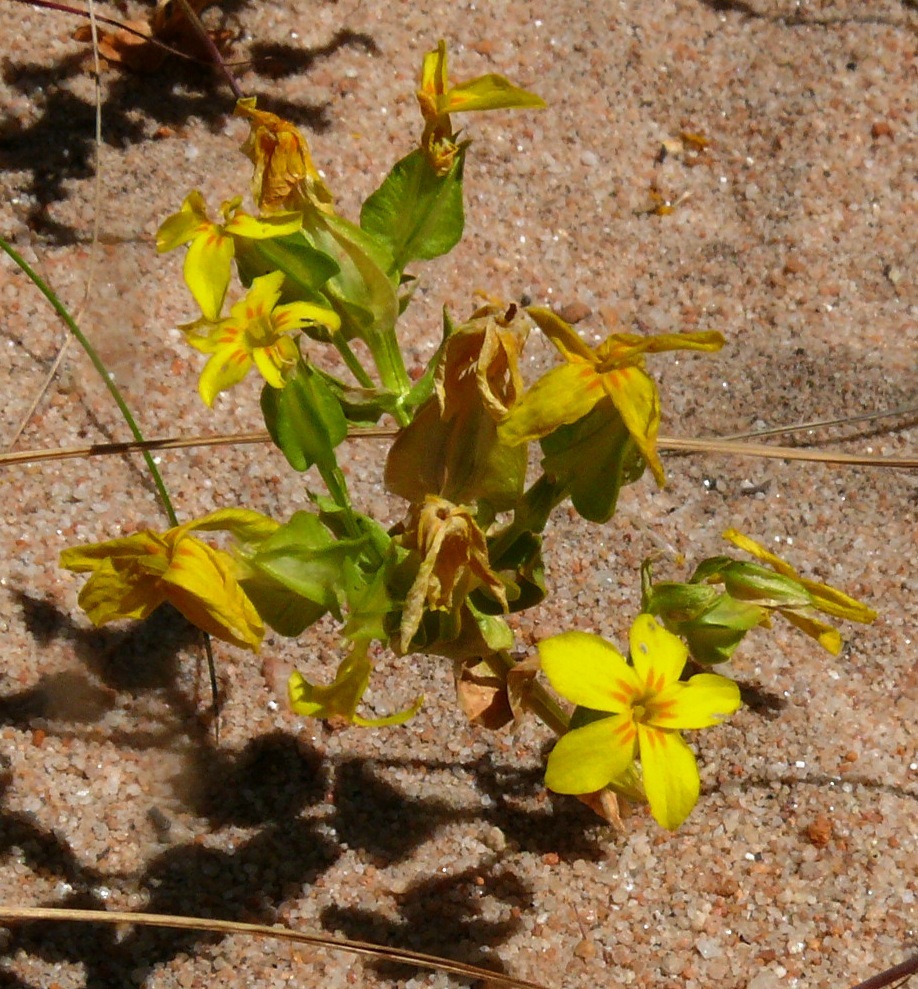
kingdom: Plantae
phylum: Tracheophyta
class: Magnoliopsida
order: Gentianales
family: Gentianaceae
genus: Sebaea
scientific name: Sebaea exacoides
